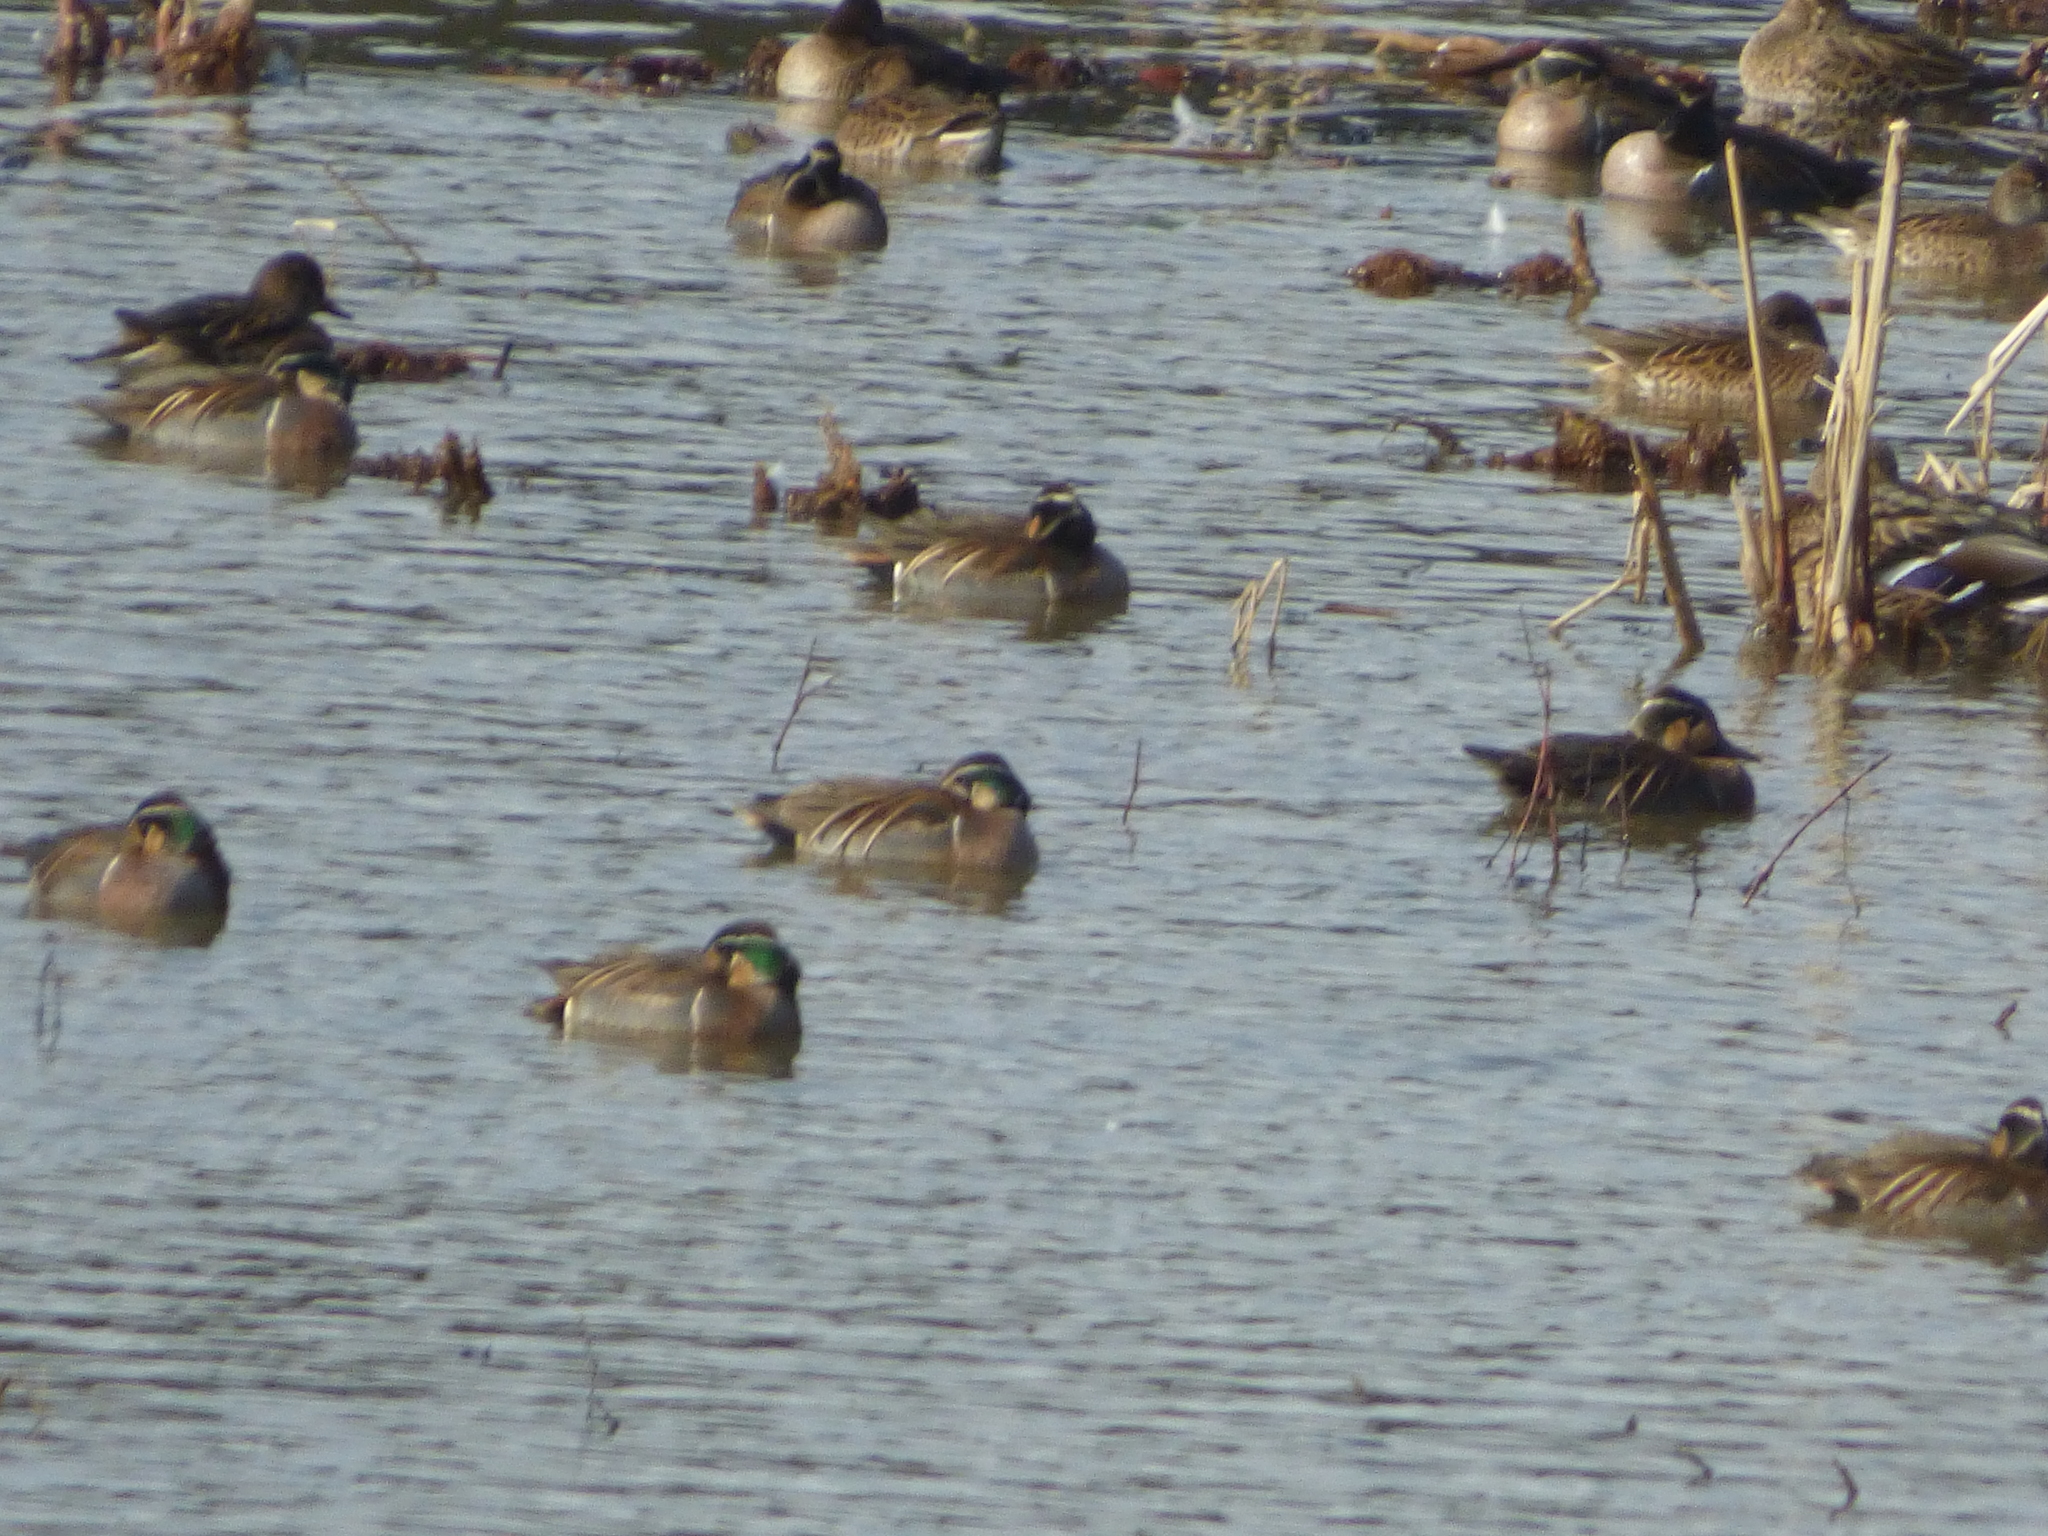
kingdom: Animalia
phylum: Chordata
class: Aves
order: Anseriformes
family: Anatidae
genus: Sibirionetta
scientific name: Sibirionetta formosa
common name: Baikal teal
